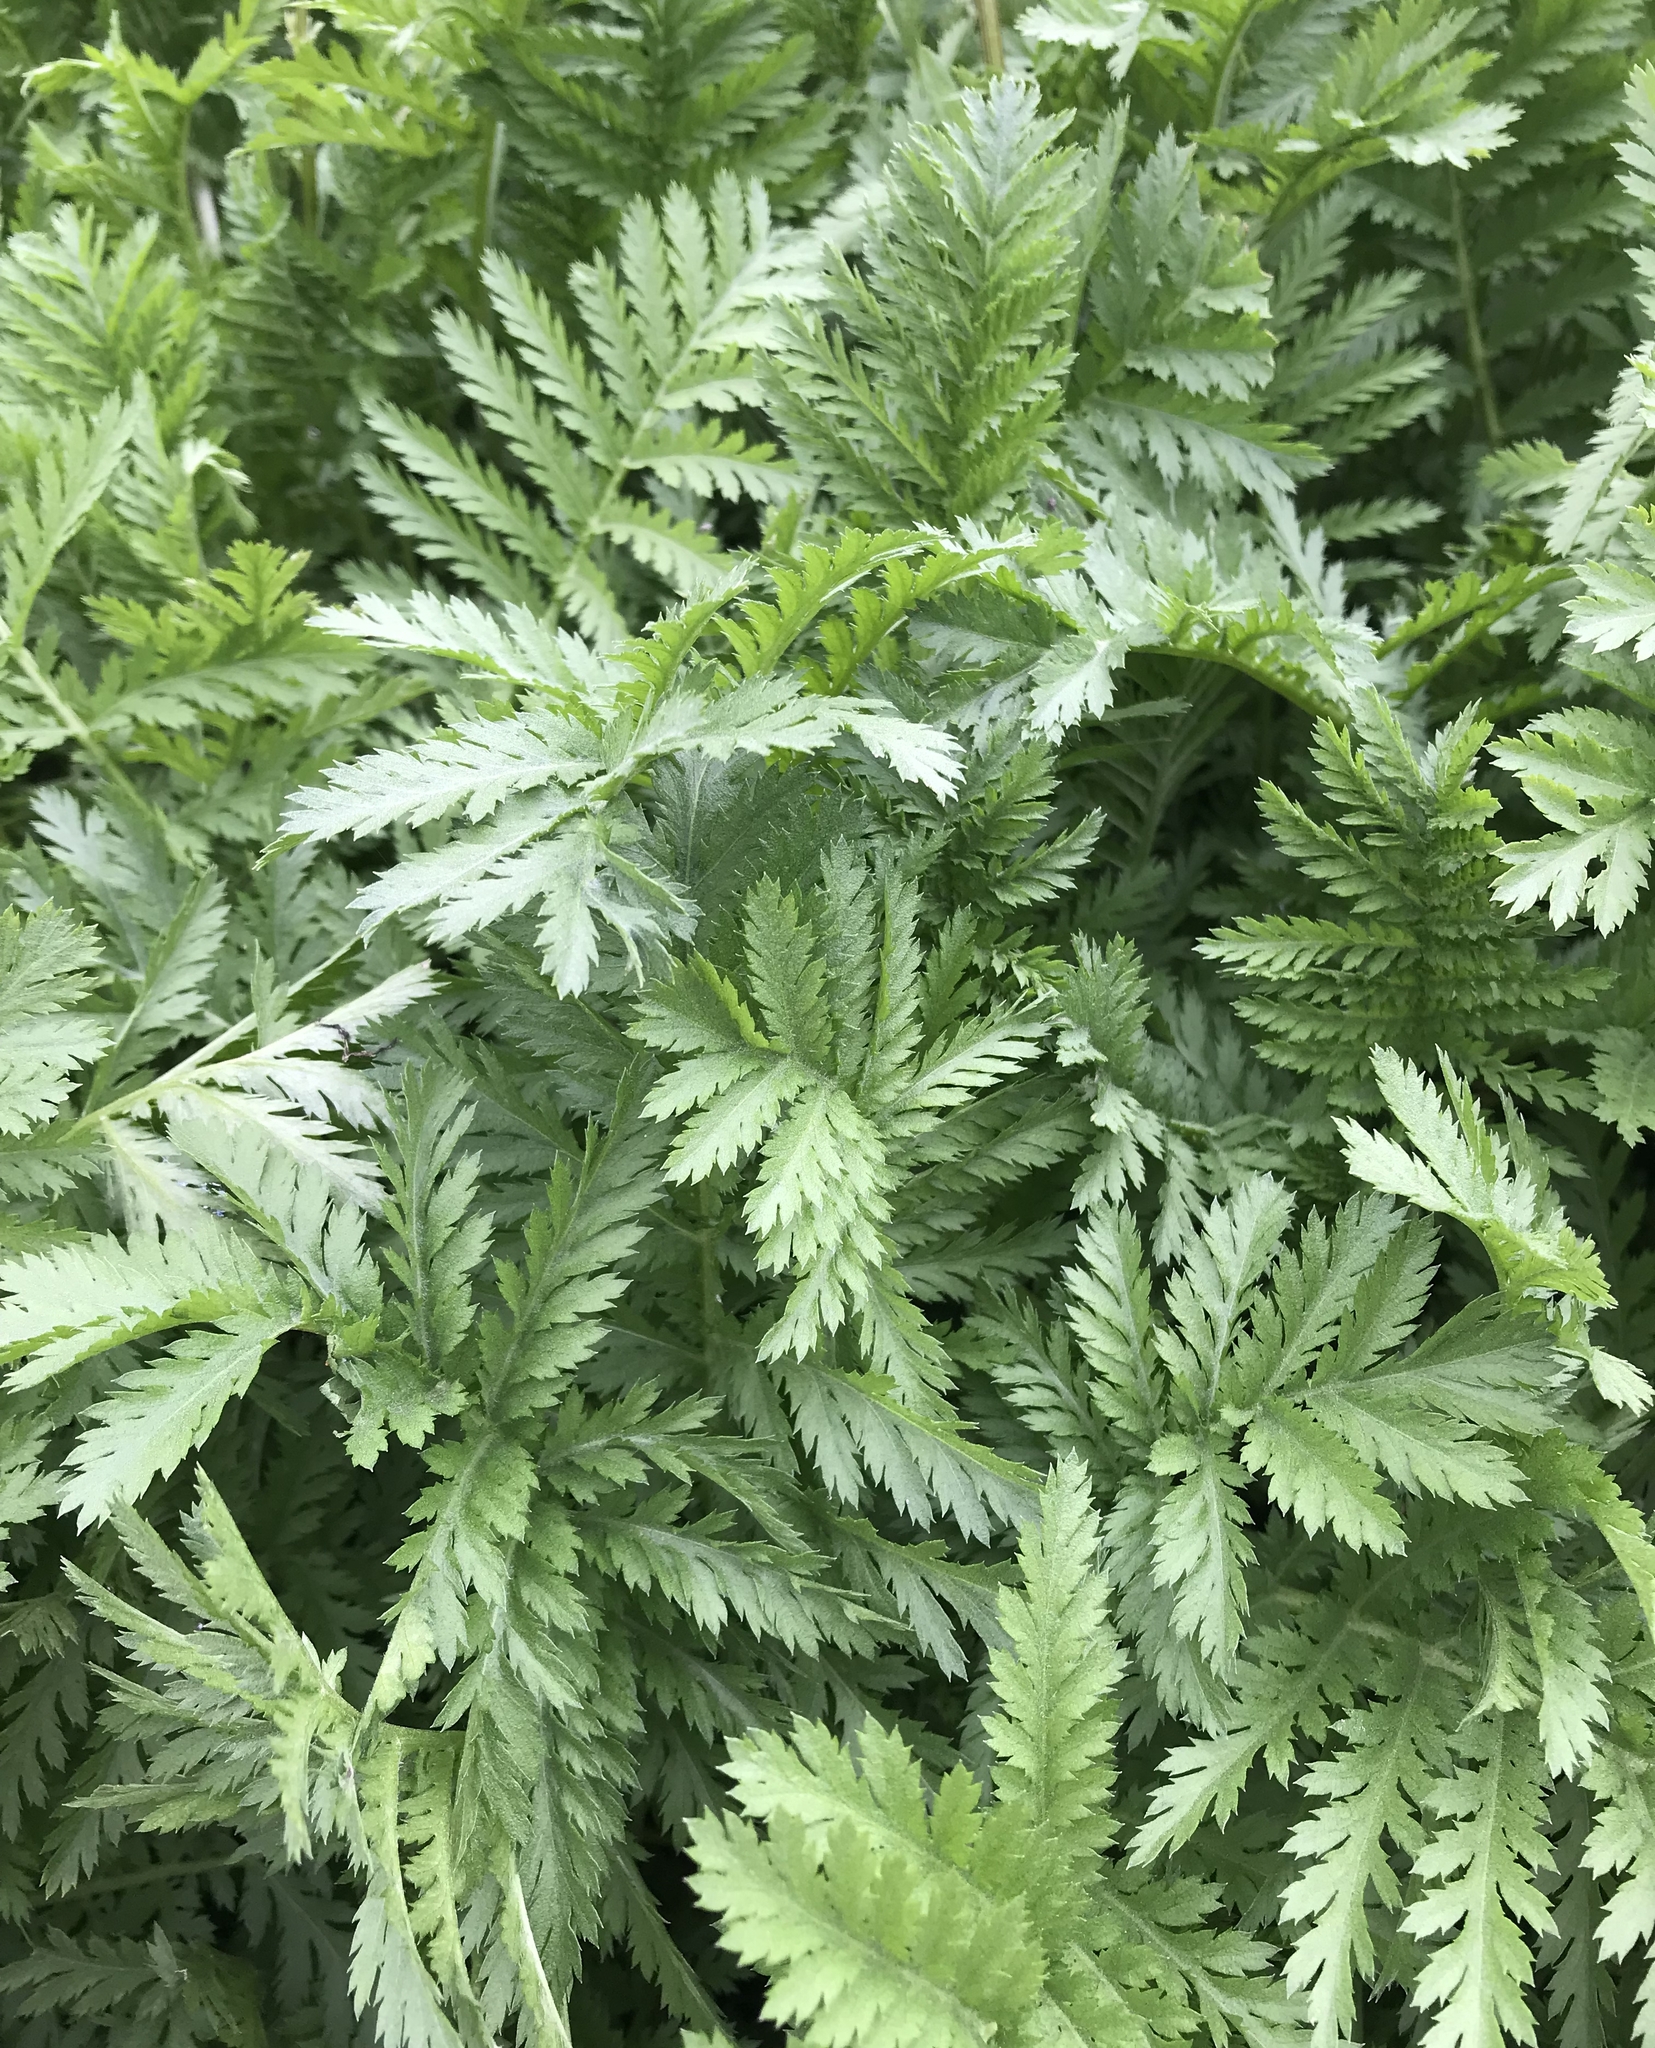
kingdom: Plantae
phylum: Tracheophyta
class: Magnoliopsida
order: Asterales
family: Asteraceae
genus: Tanacetum
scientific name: Tanacetum vulgare
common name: Common tansy
